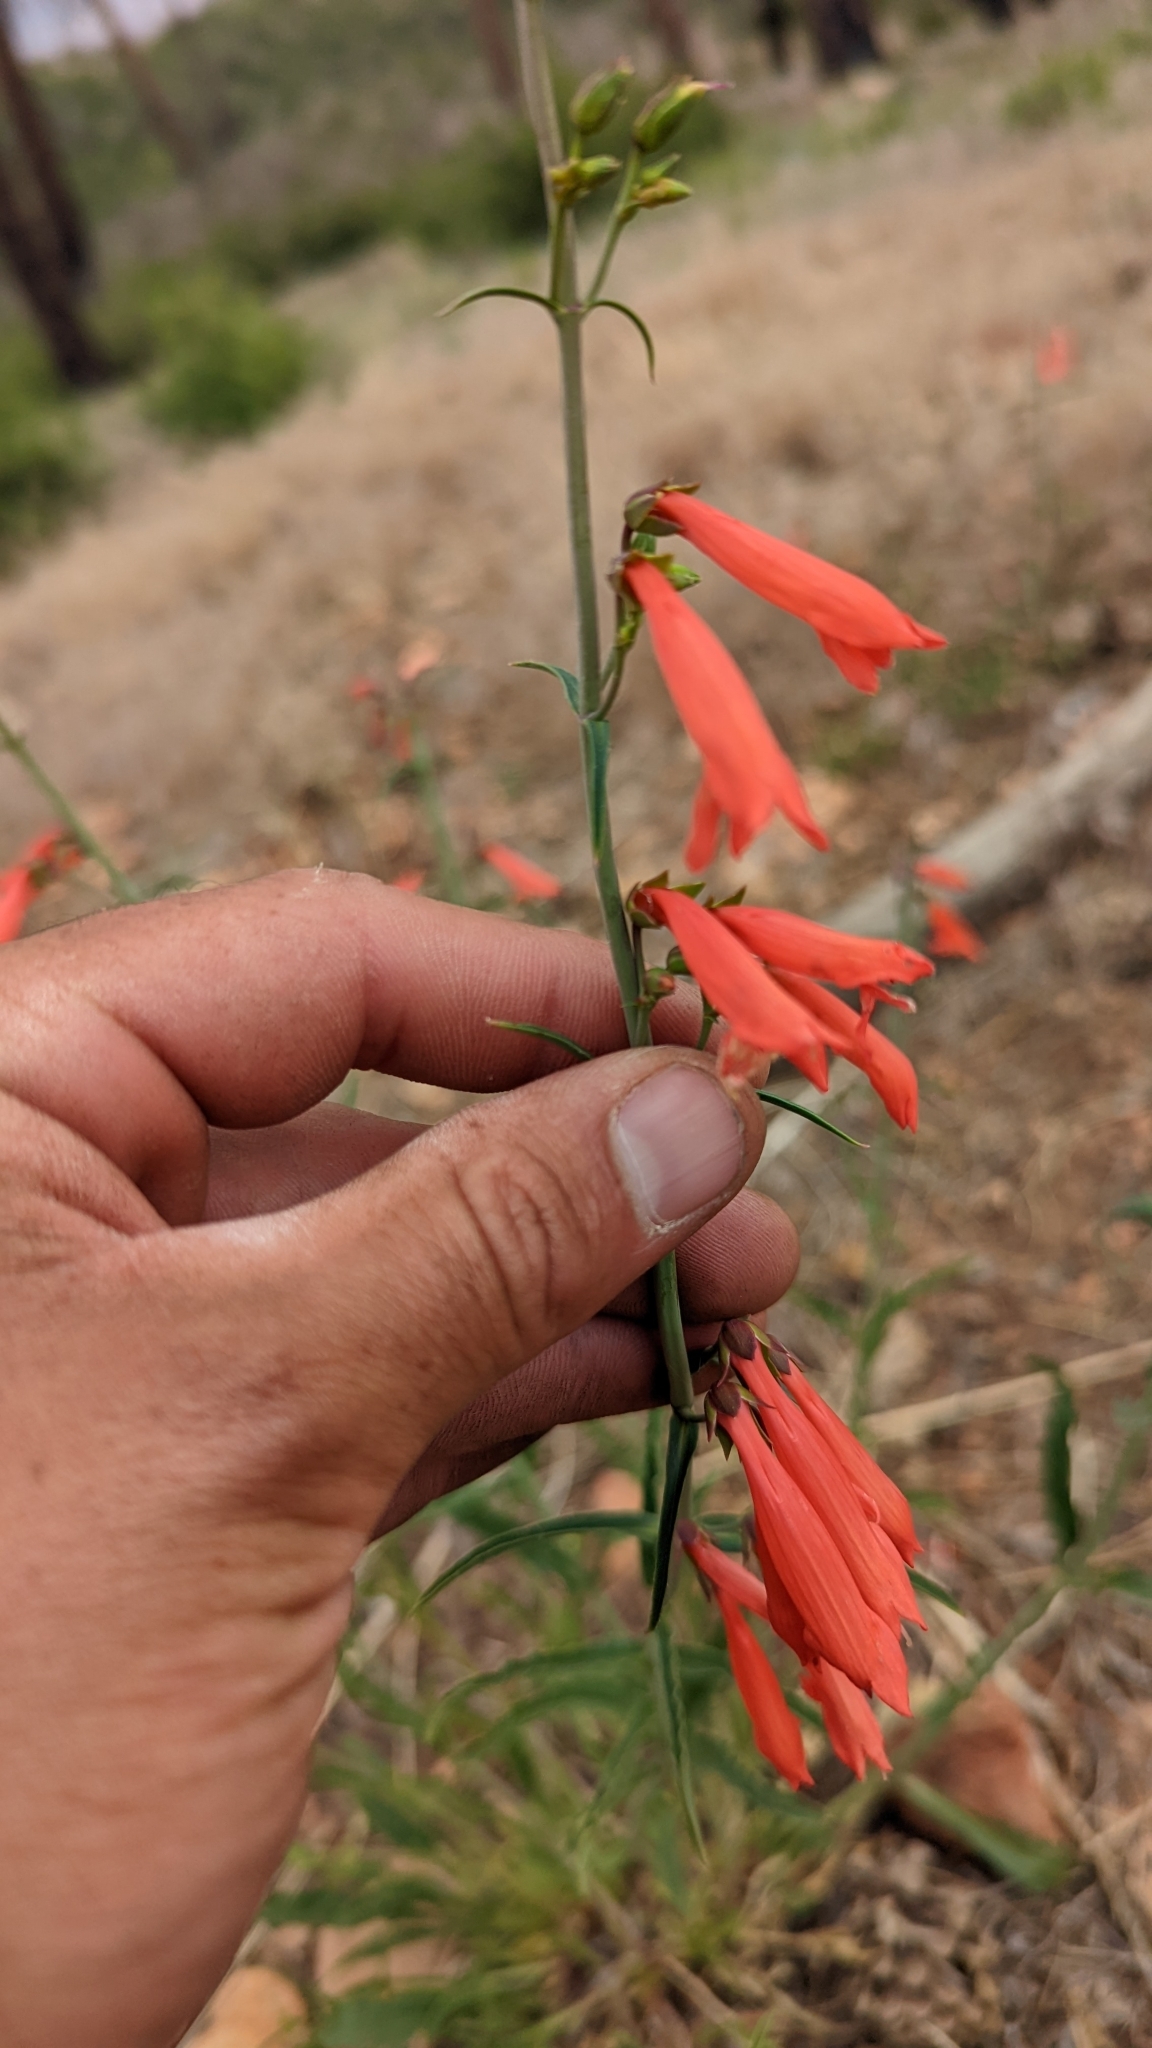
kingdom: Plantae
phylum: Tracheophyta
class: Magnoliopsida
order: Lamiales
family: Plantaginaceae
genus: Penstemon
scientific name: Penstemon barbatus
